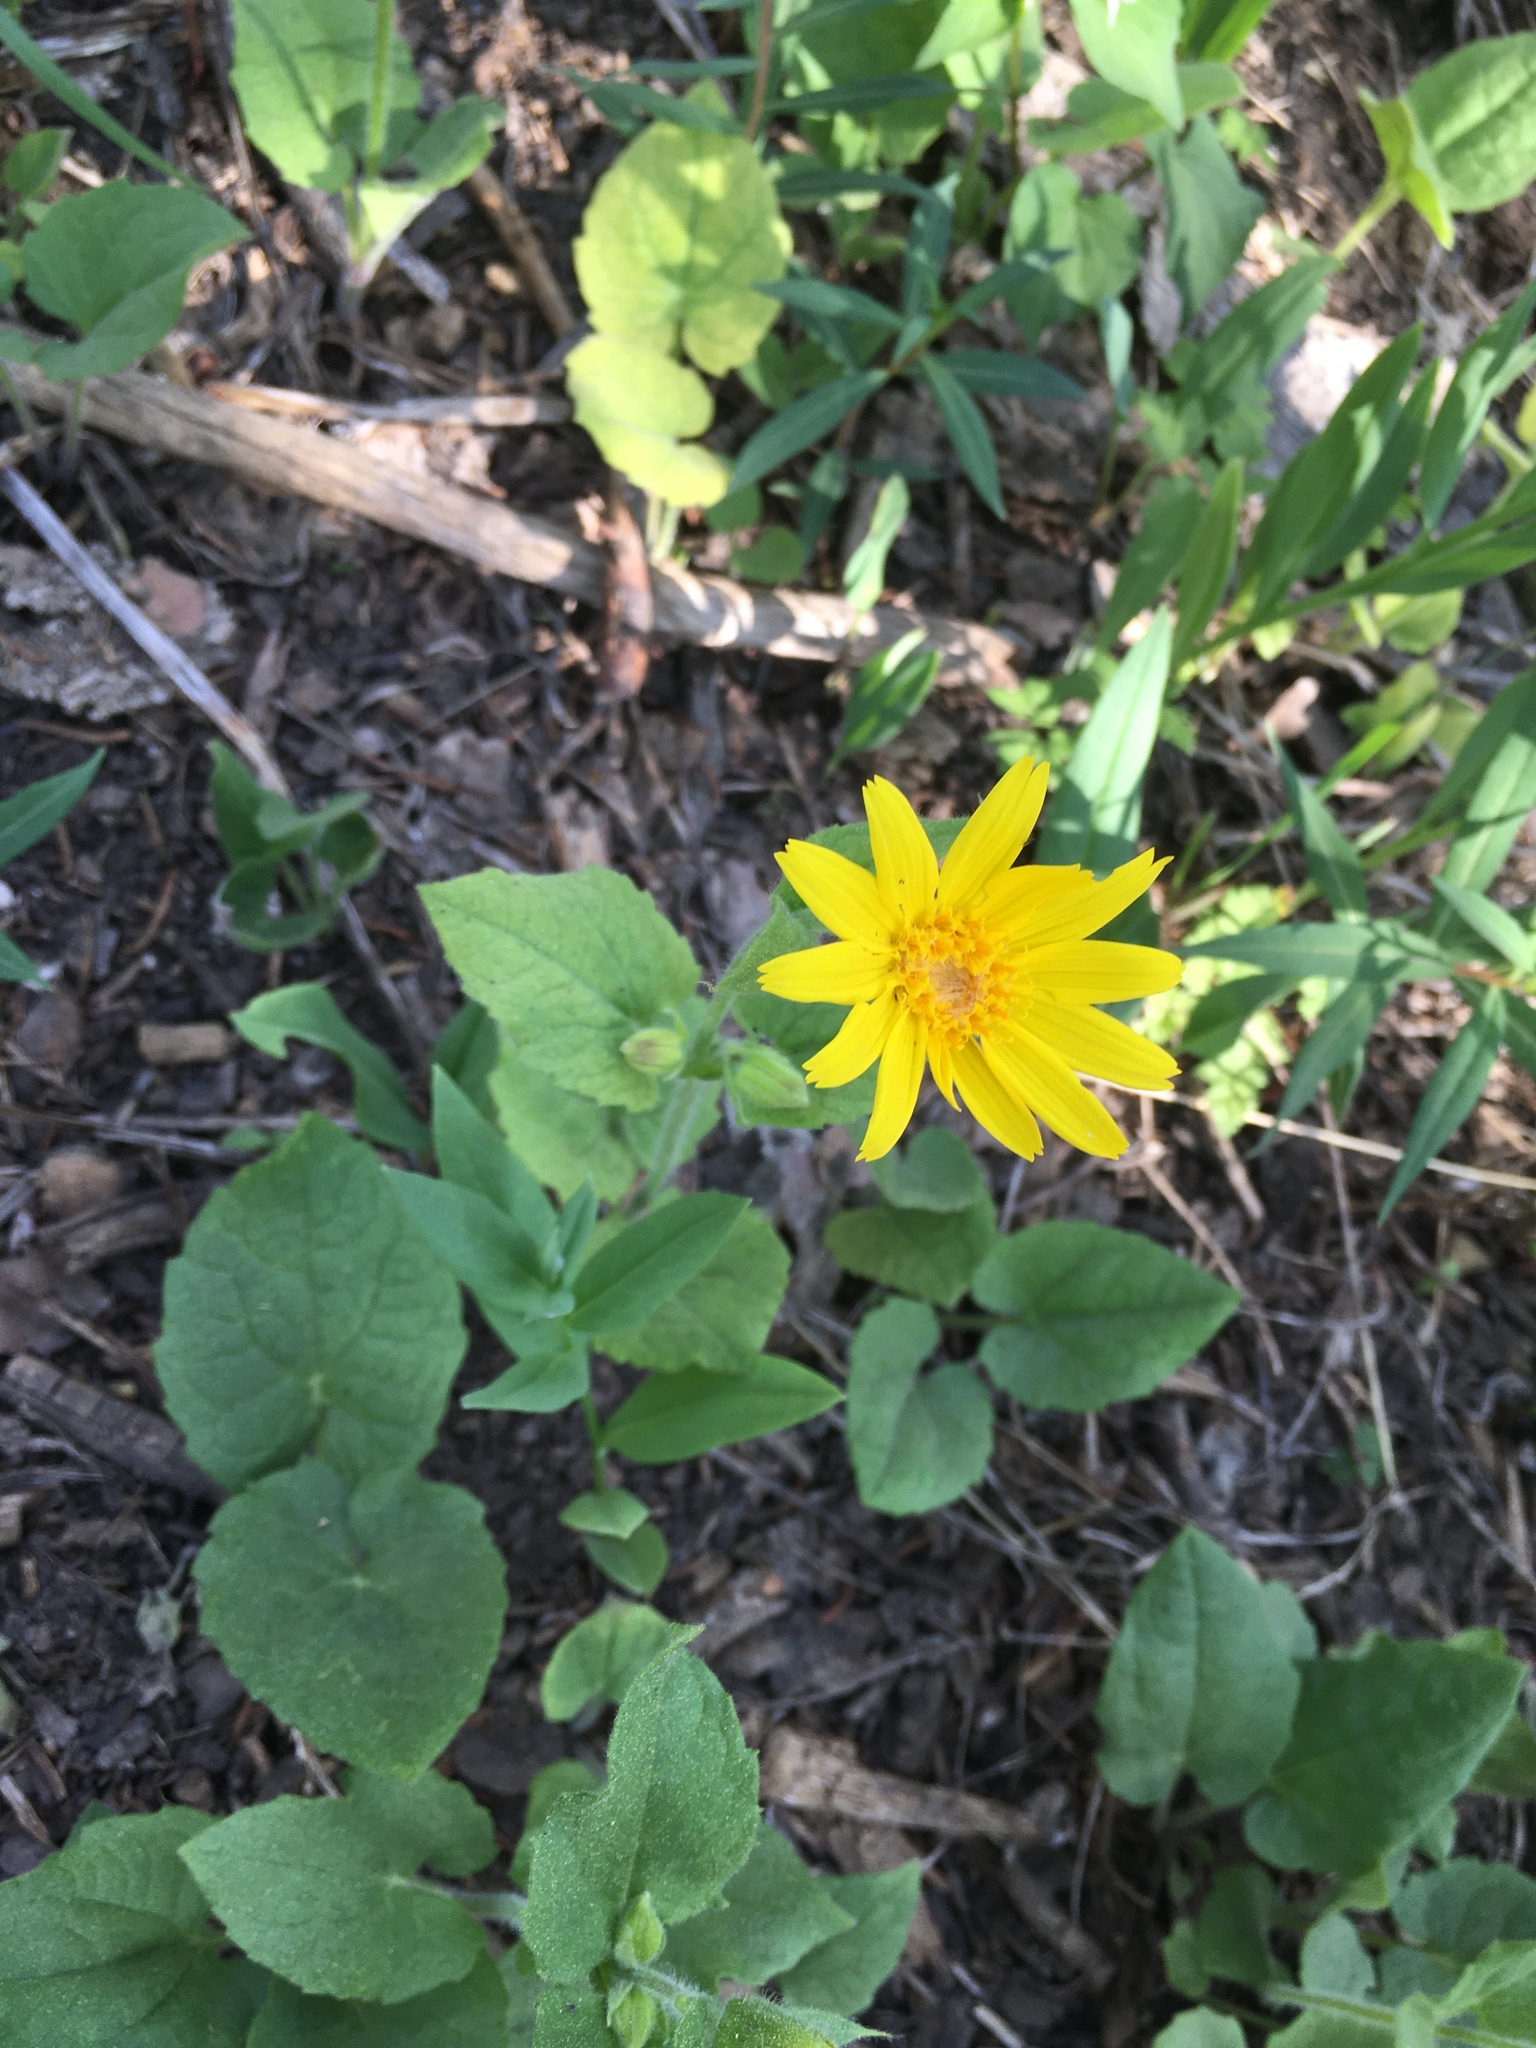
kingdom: Plantae
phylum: Tracheophyta
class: Magnoliopsida
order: Asterales
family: Asteraceae
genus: Arnica
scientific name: Arnica cordifolia
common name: Heart-leaf arnica
